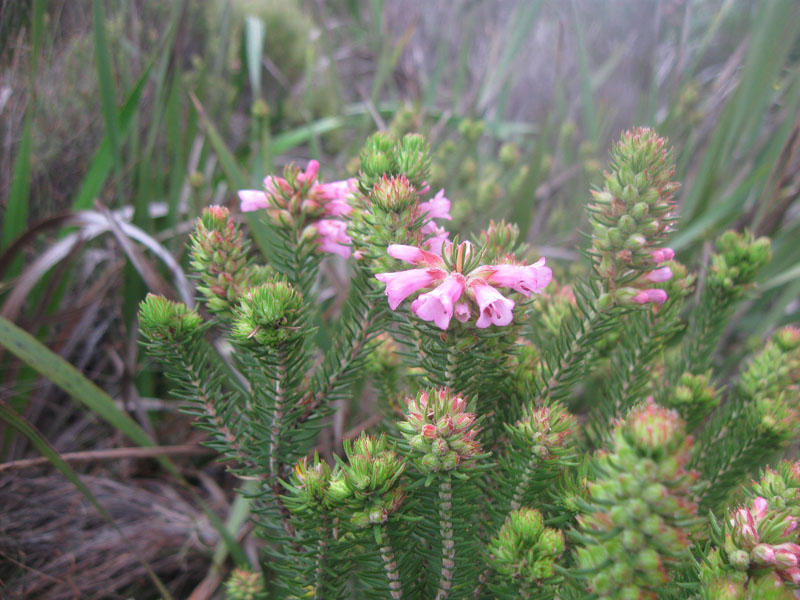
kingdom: Plantae
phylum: Tracheophyta
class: Magnoliopsida
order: Ericales
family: Ericaceae
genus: Erica
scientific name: Erica abietina
